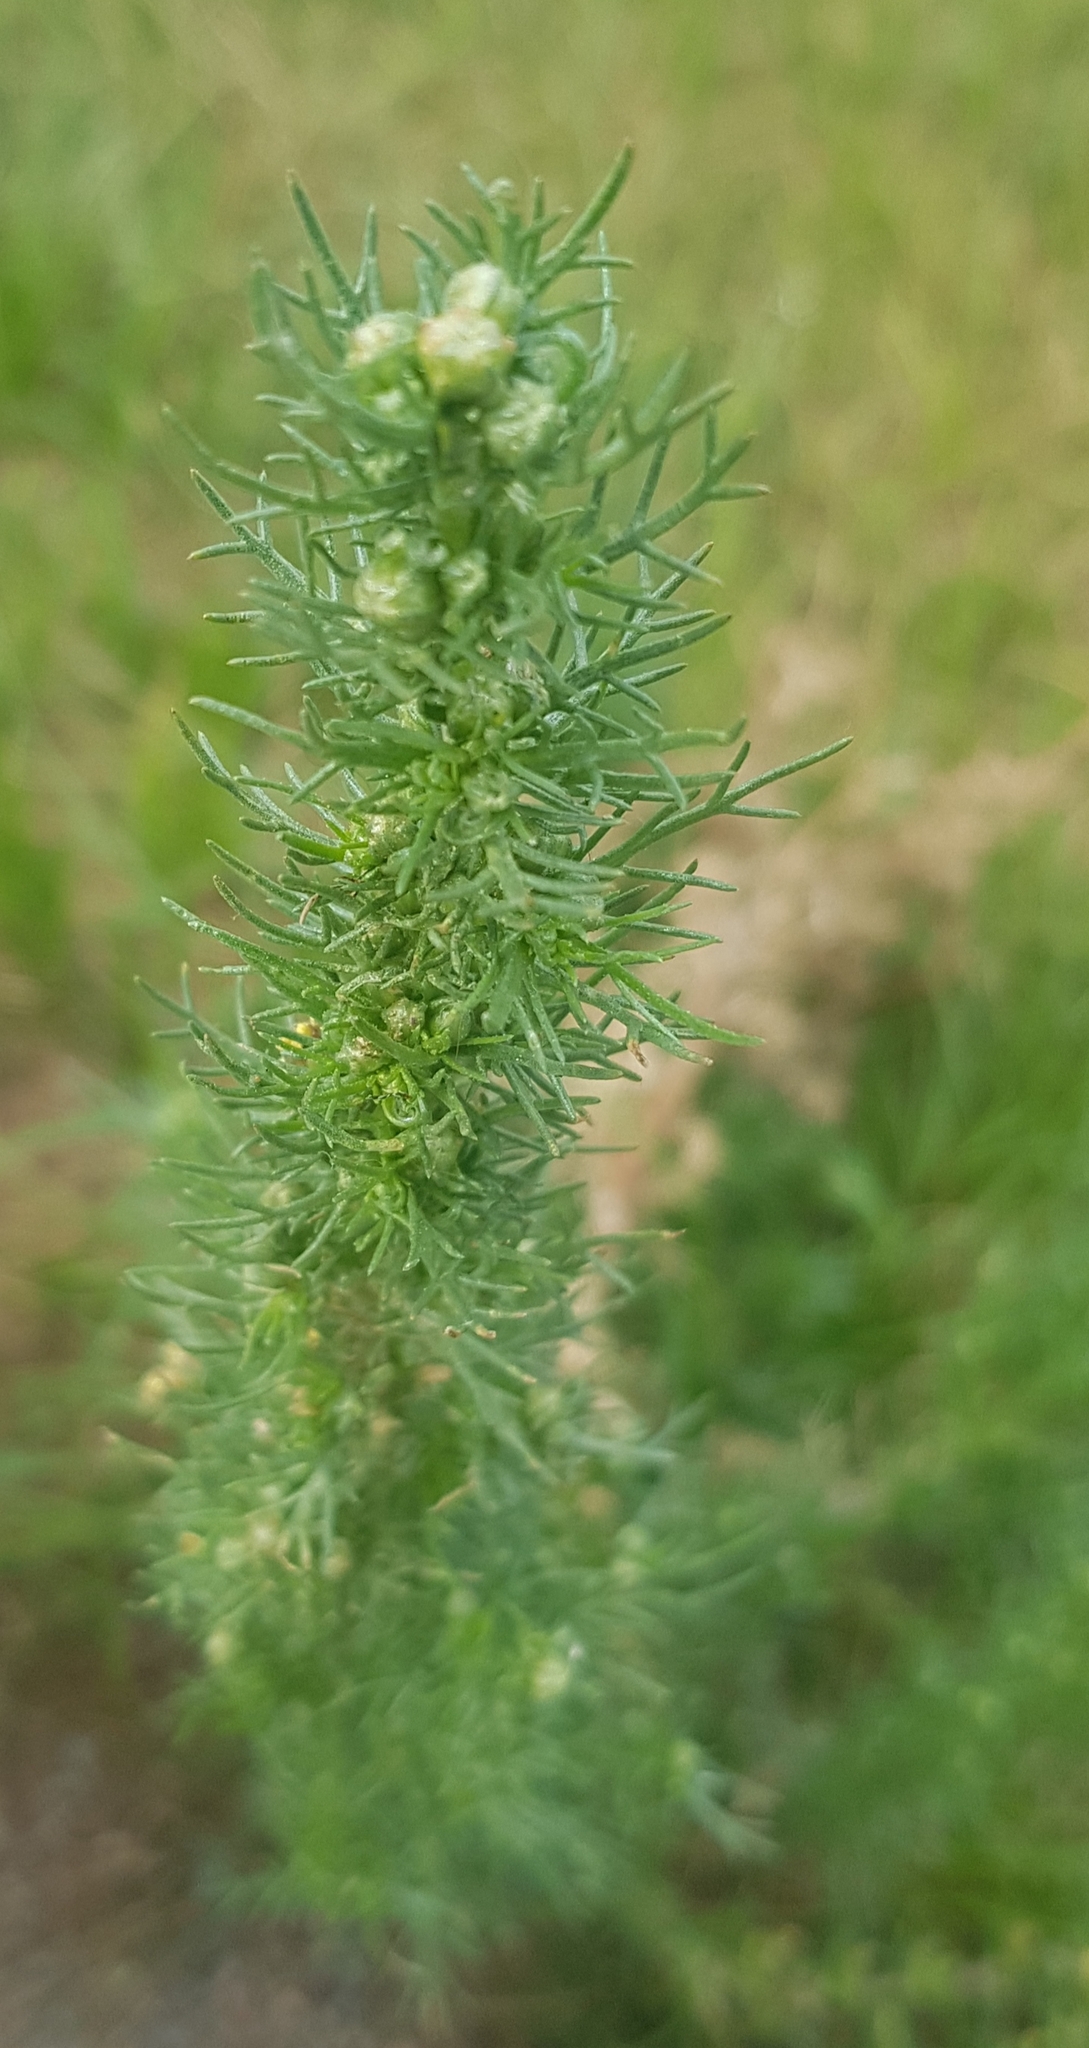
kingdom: Plantae
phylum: Tracheophyta
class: Magnoliopsida
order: Asterales
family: Asteraceae
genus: Neopallasia
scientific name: Neopallasia pectinata
